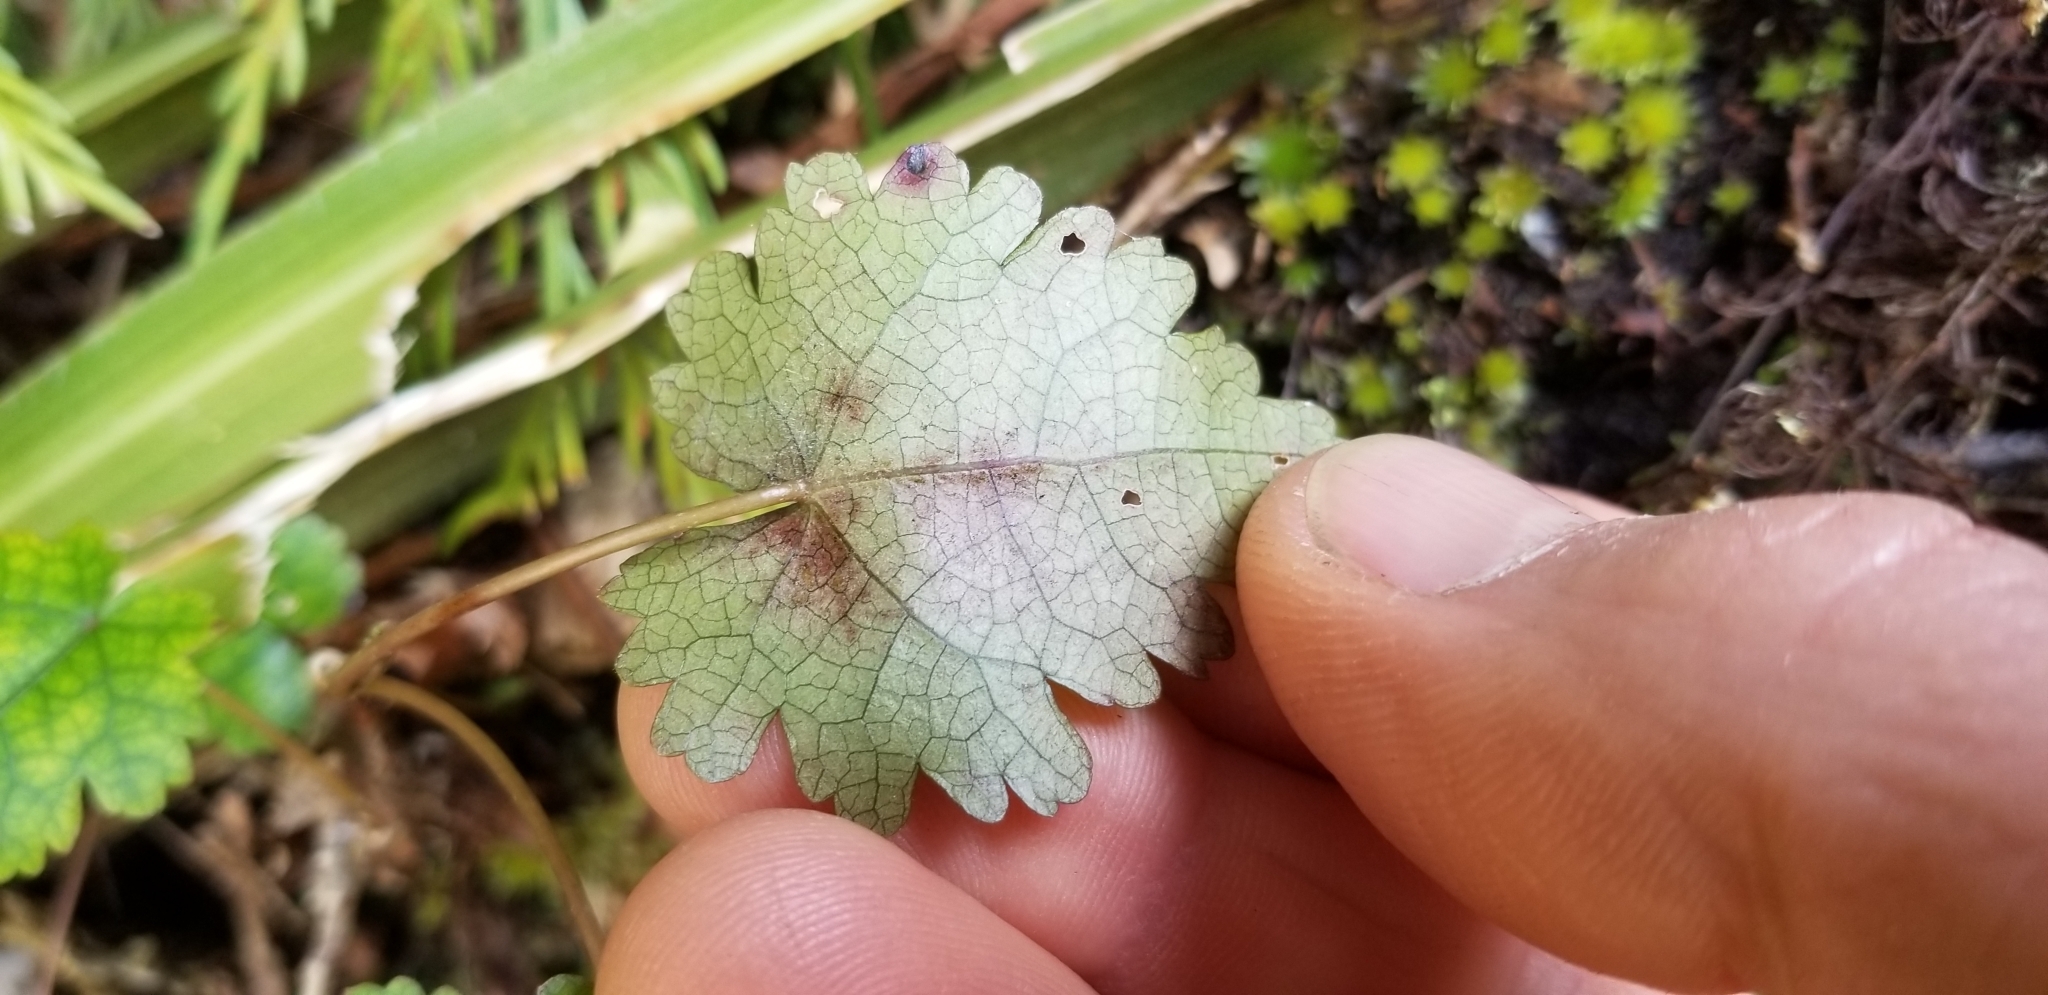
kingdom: Plantae
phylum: Tracheophyta
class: Magnoliopsida
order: Malvales
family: Malvaceae
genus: Hoheria
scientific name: Hoheria glabrata
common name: Mountain-ribbon
